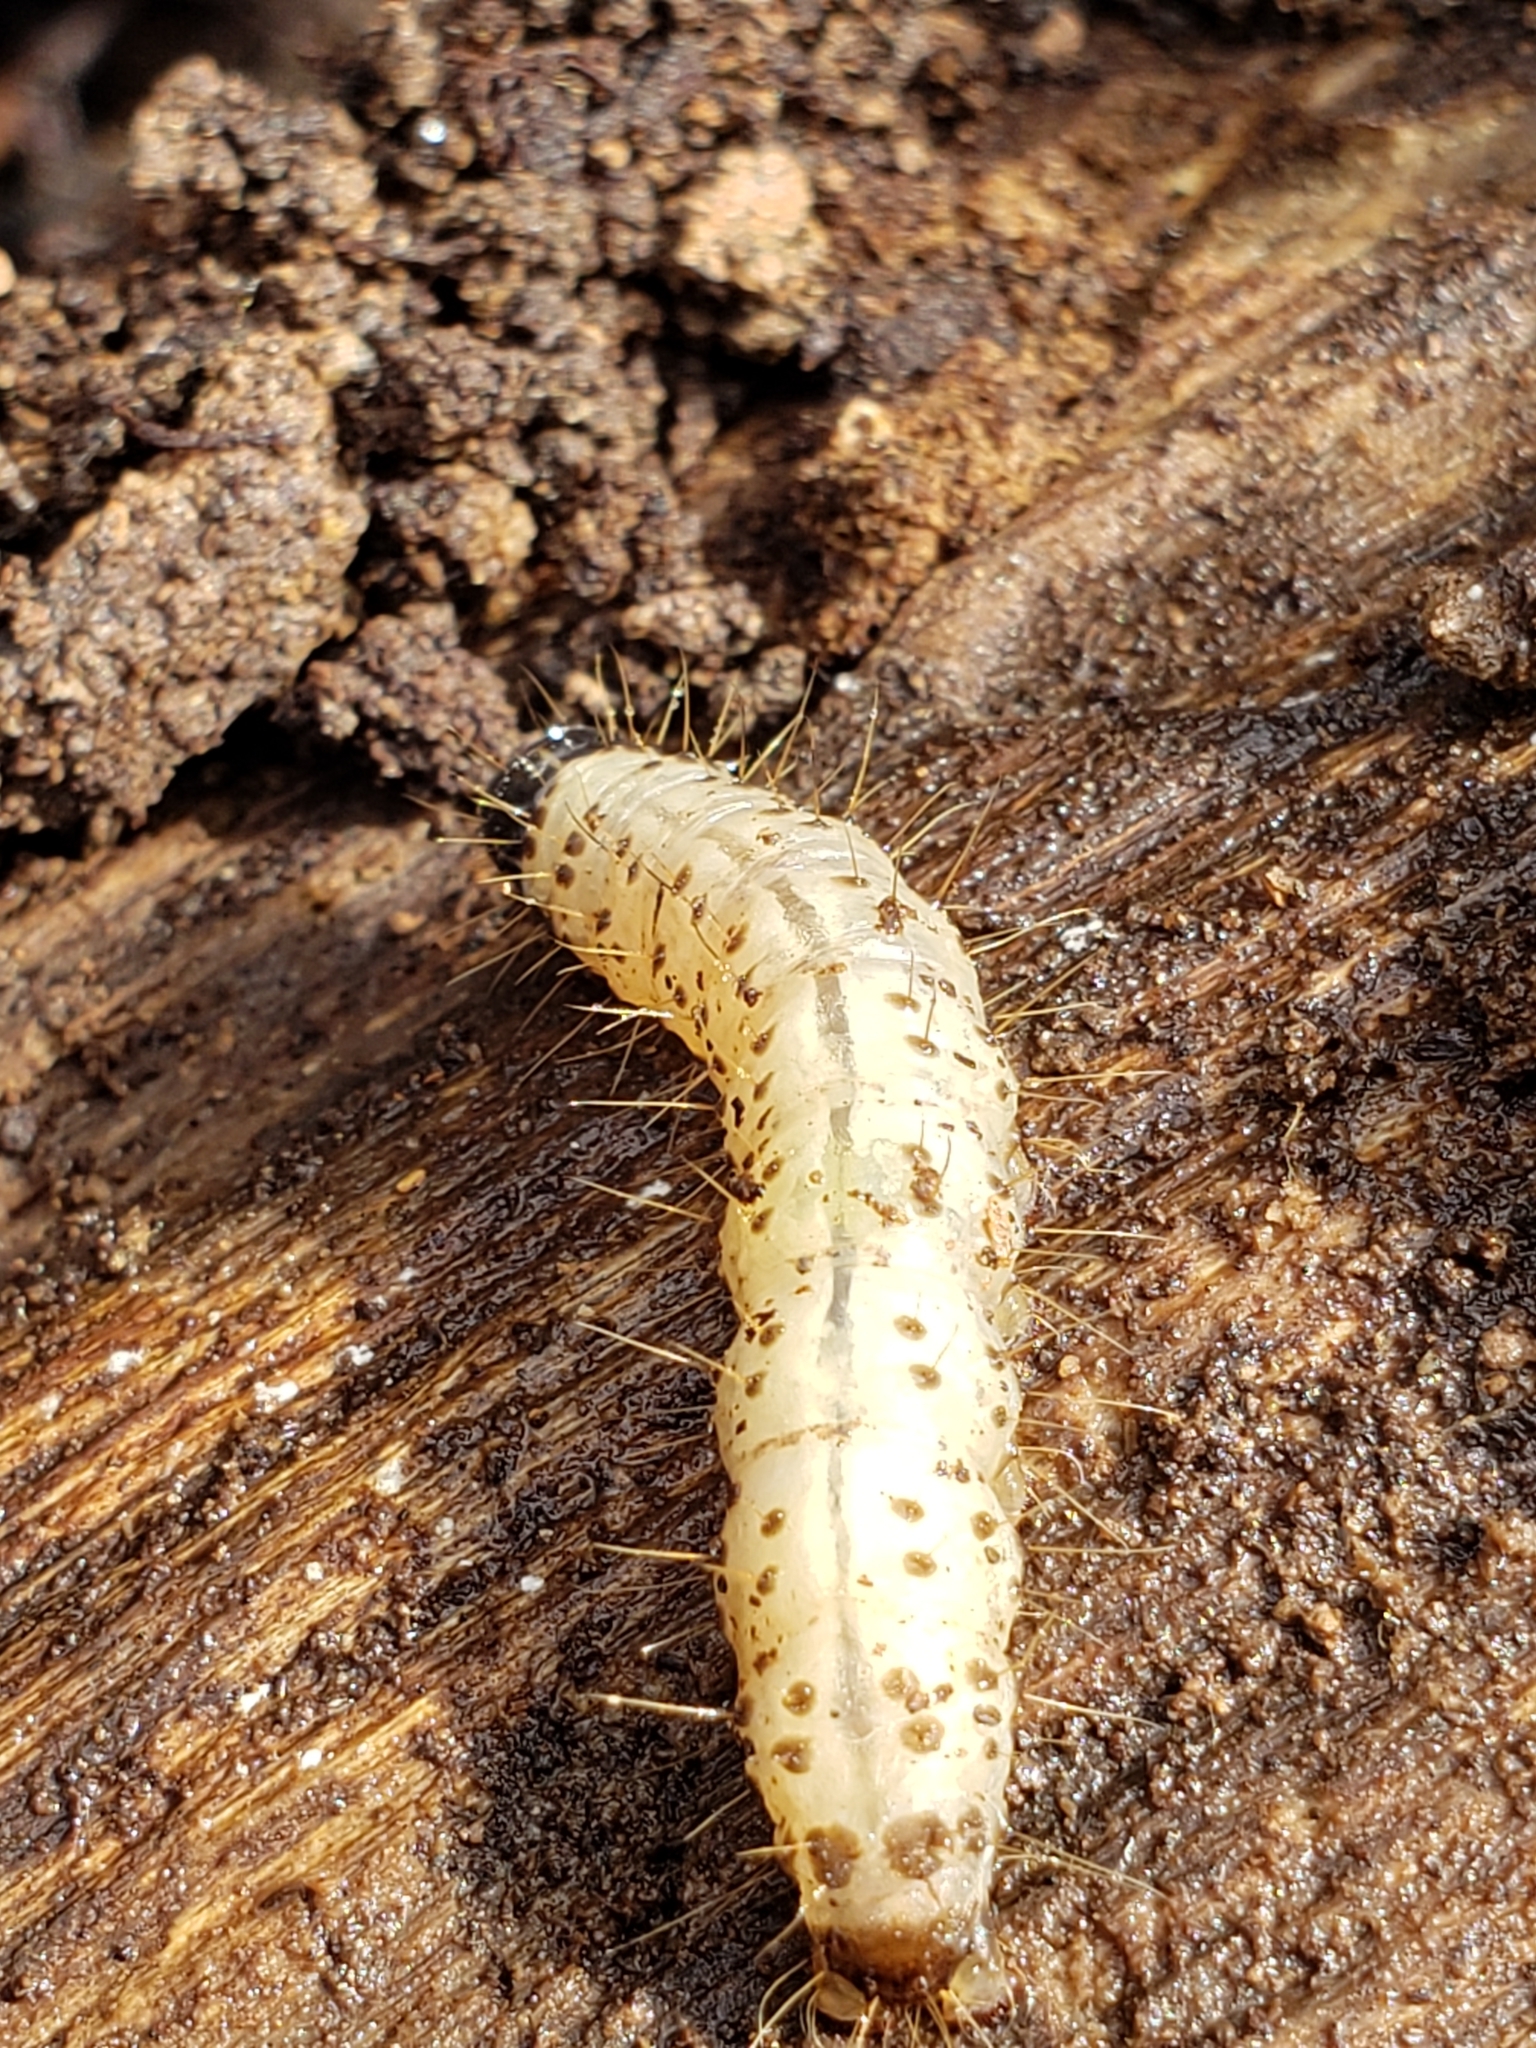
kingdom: Animalia
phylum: Arthropoda
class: Insecta
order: Lepidoptera
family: Erebidae
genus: Scolecocampa
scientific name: Scolecocampa liburna
